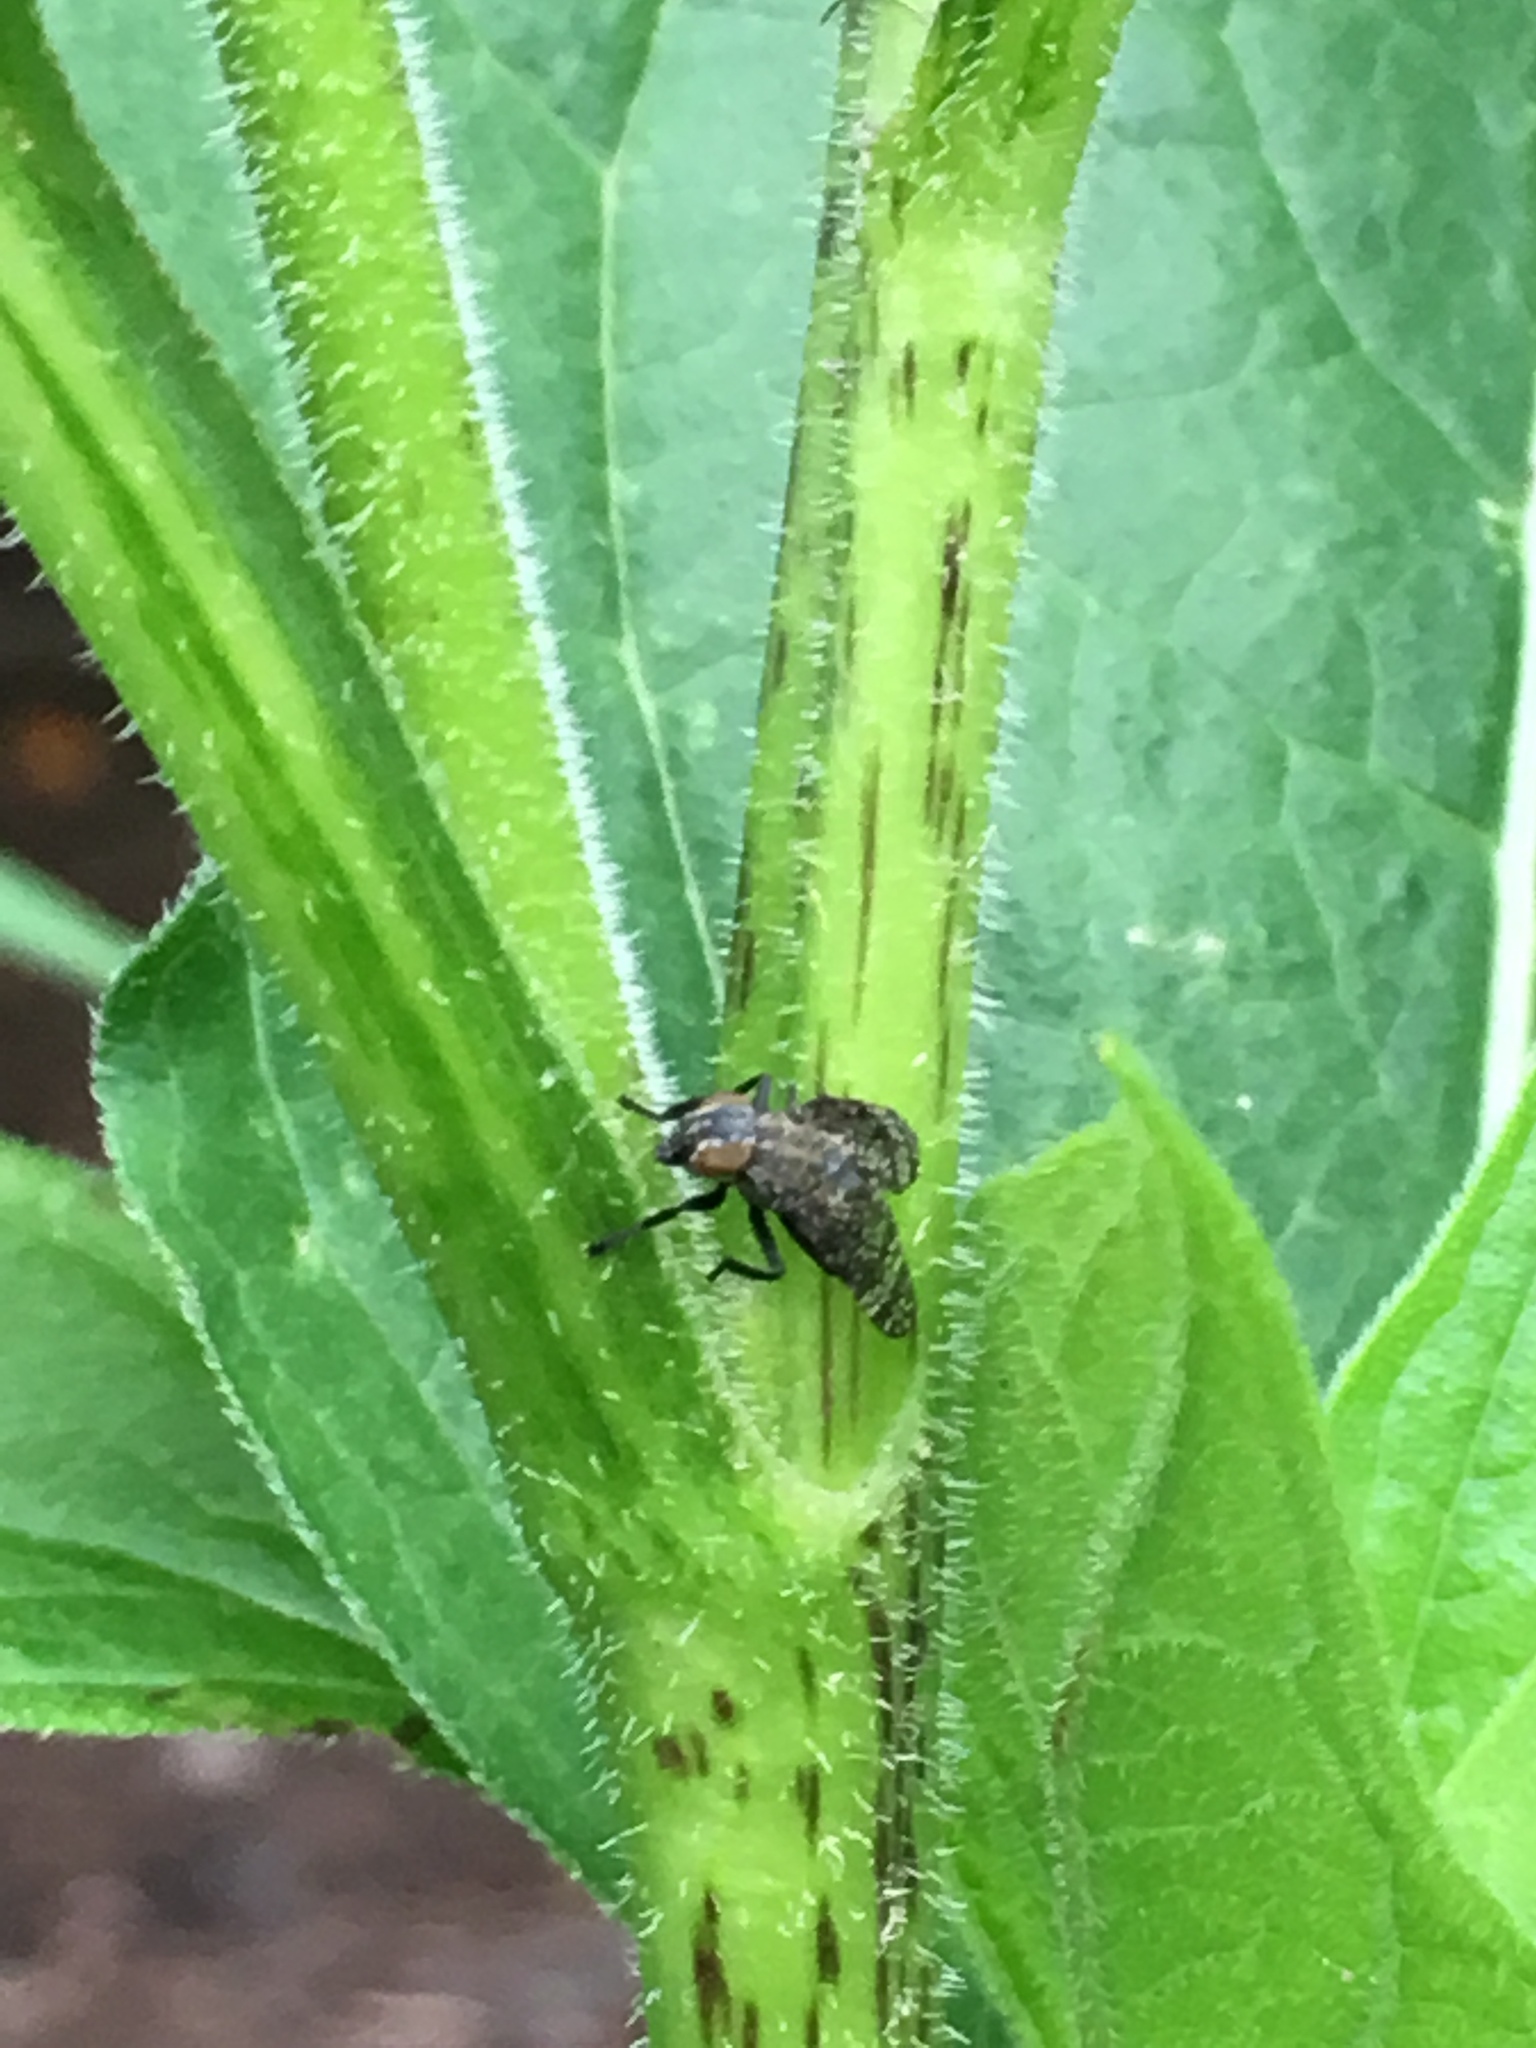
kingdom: Animalia
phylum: Arthropoda
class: Insecta
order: Diptera
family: Platystomatidae
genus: Platystoma
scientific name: Platystoma seminationis
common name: Fly
